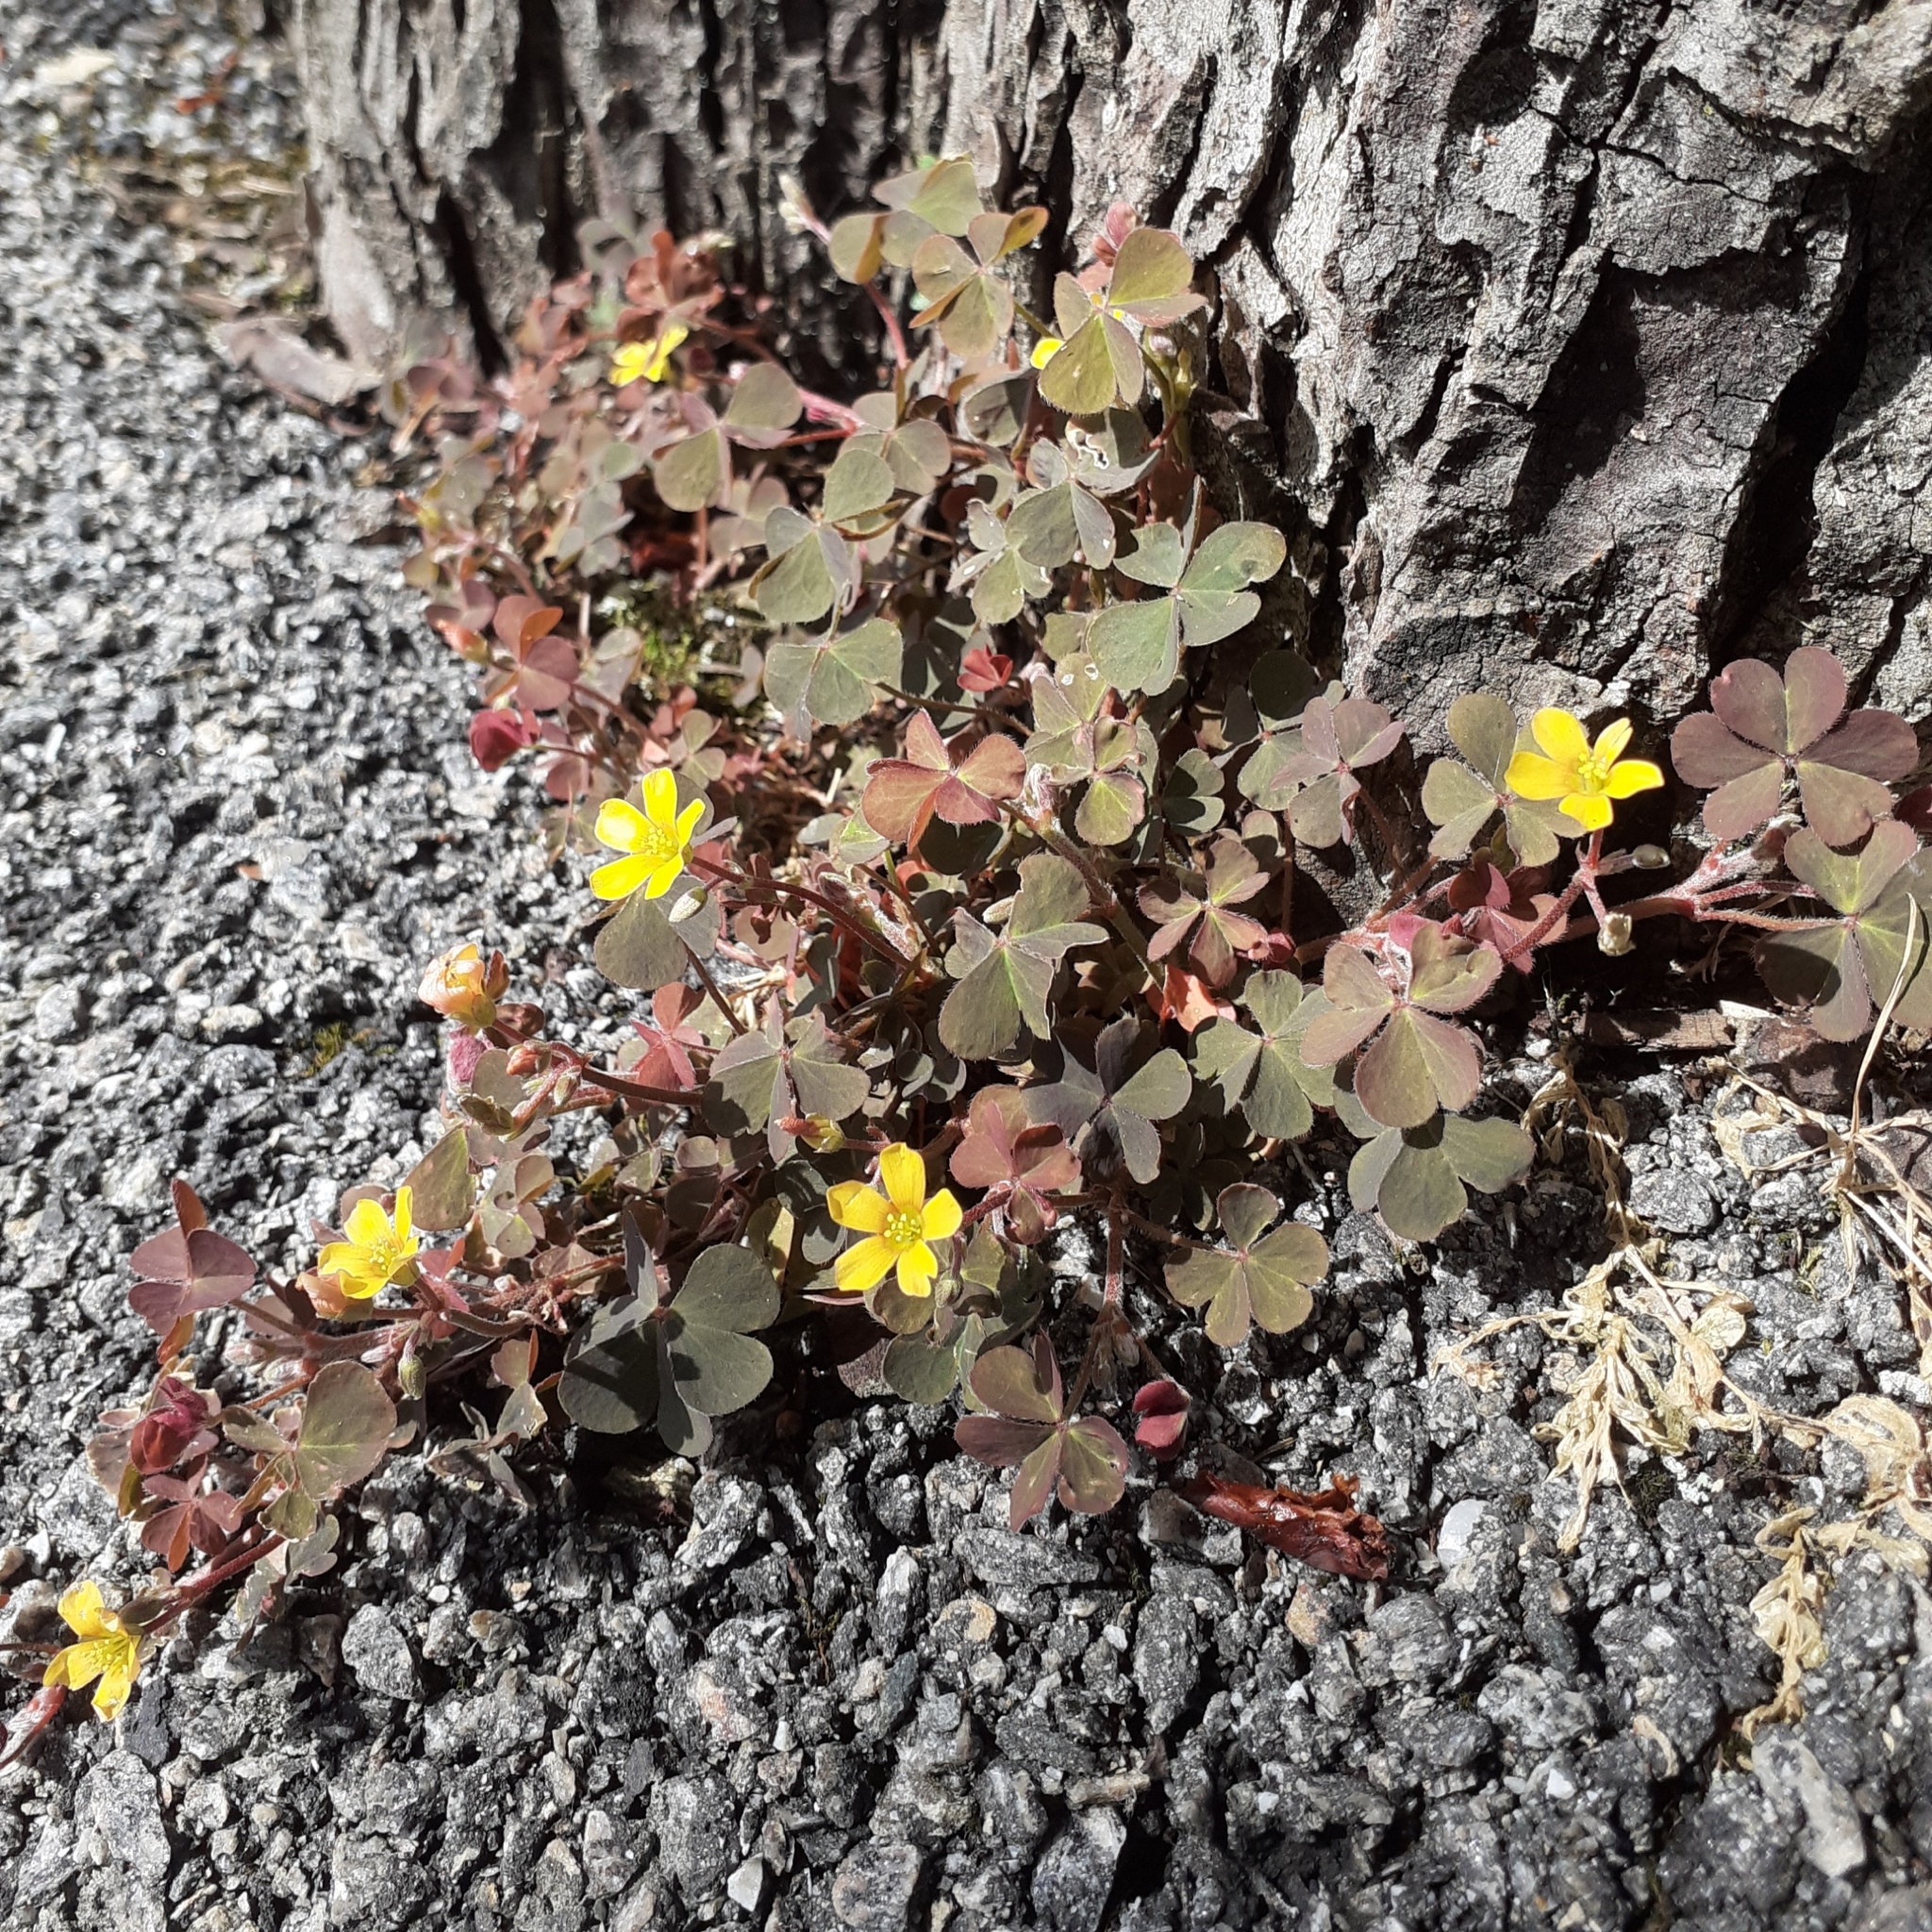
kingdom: Plantae
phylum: Tracheophyta
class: Magnoliopsida
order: Oxalidales
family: Oxalidaceae
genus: Oxalis
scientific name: Oxalis corniculata
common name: Procumbent yellow-sorrel
